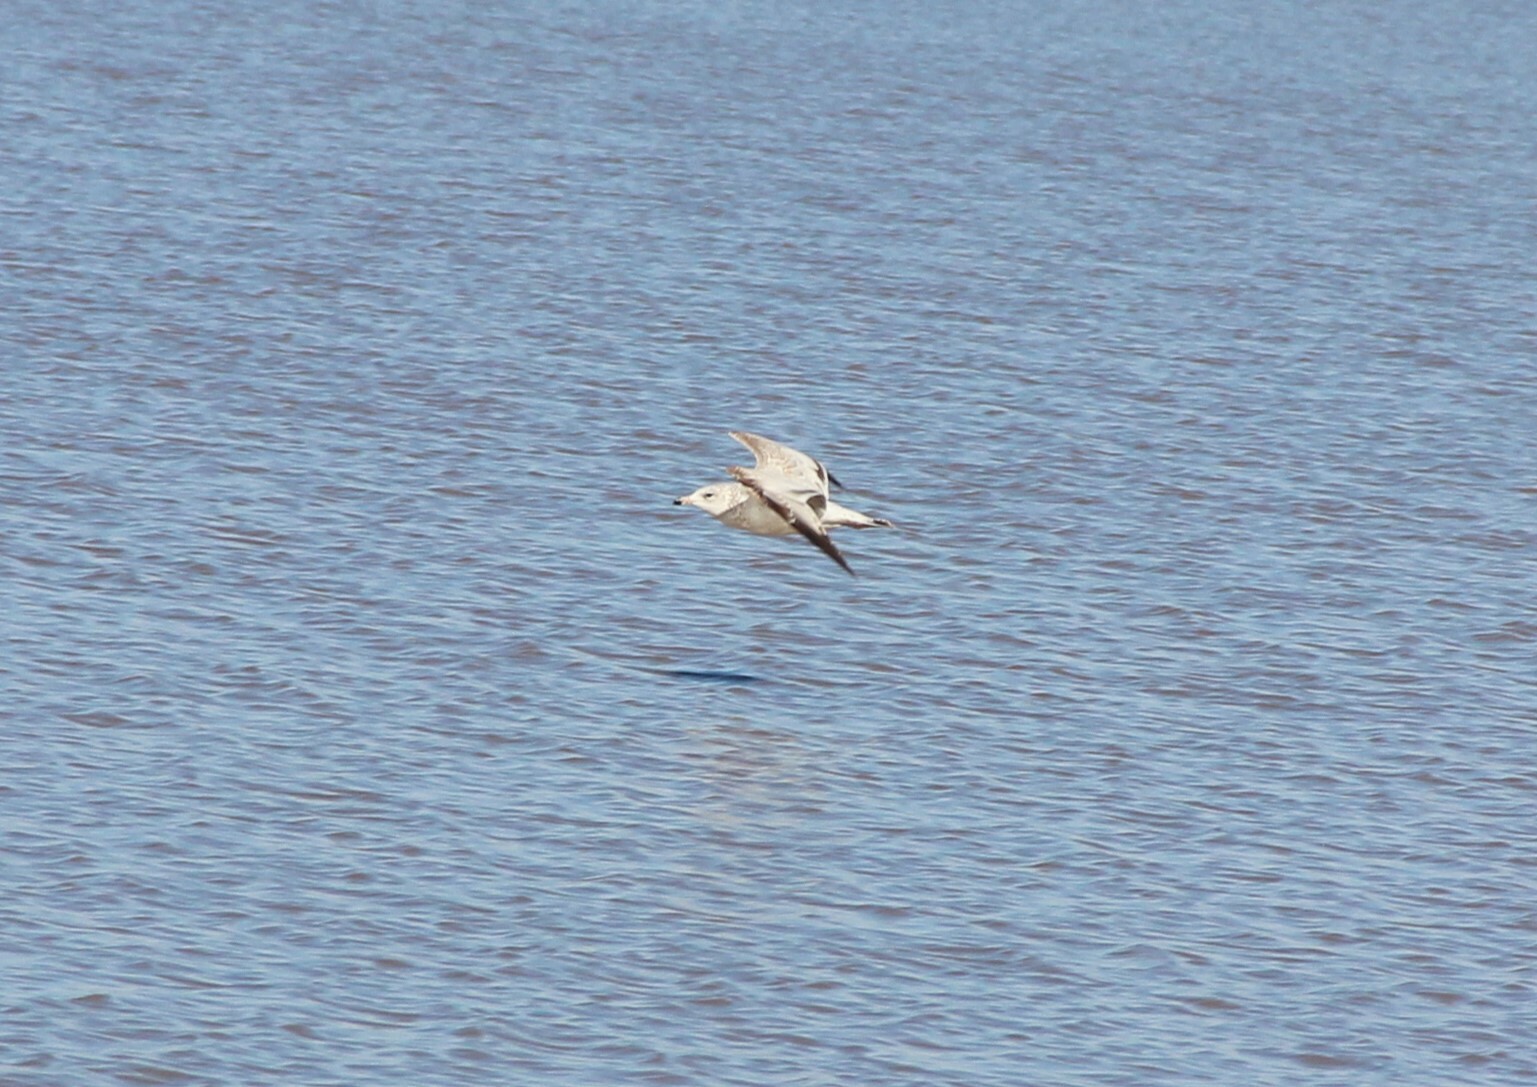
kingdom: Animalia
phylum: Chordata
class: Aves
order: Charadriiformes
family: Laridae
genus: Larus
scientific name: Larus delawarensis
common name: Ring-billed gull
